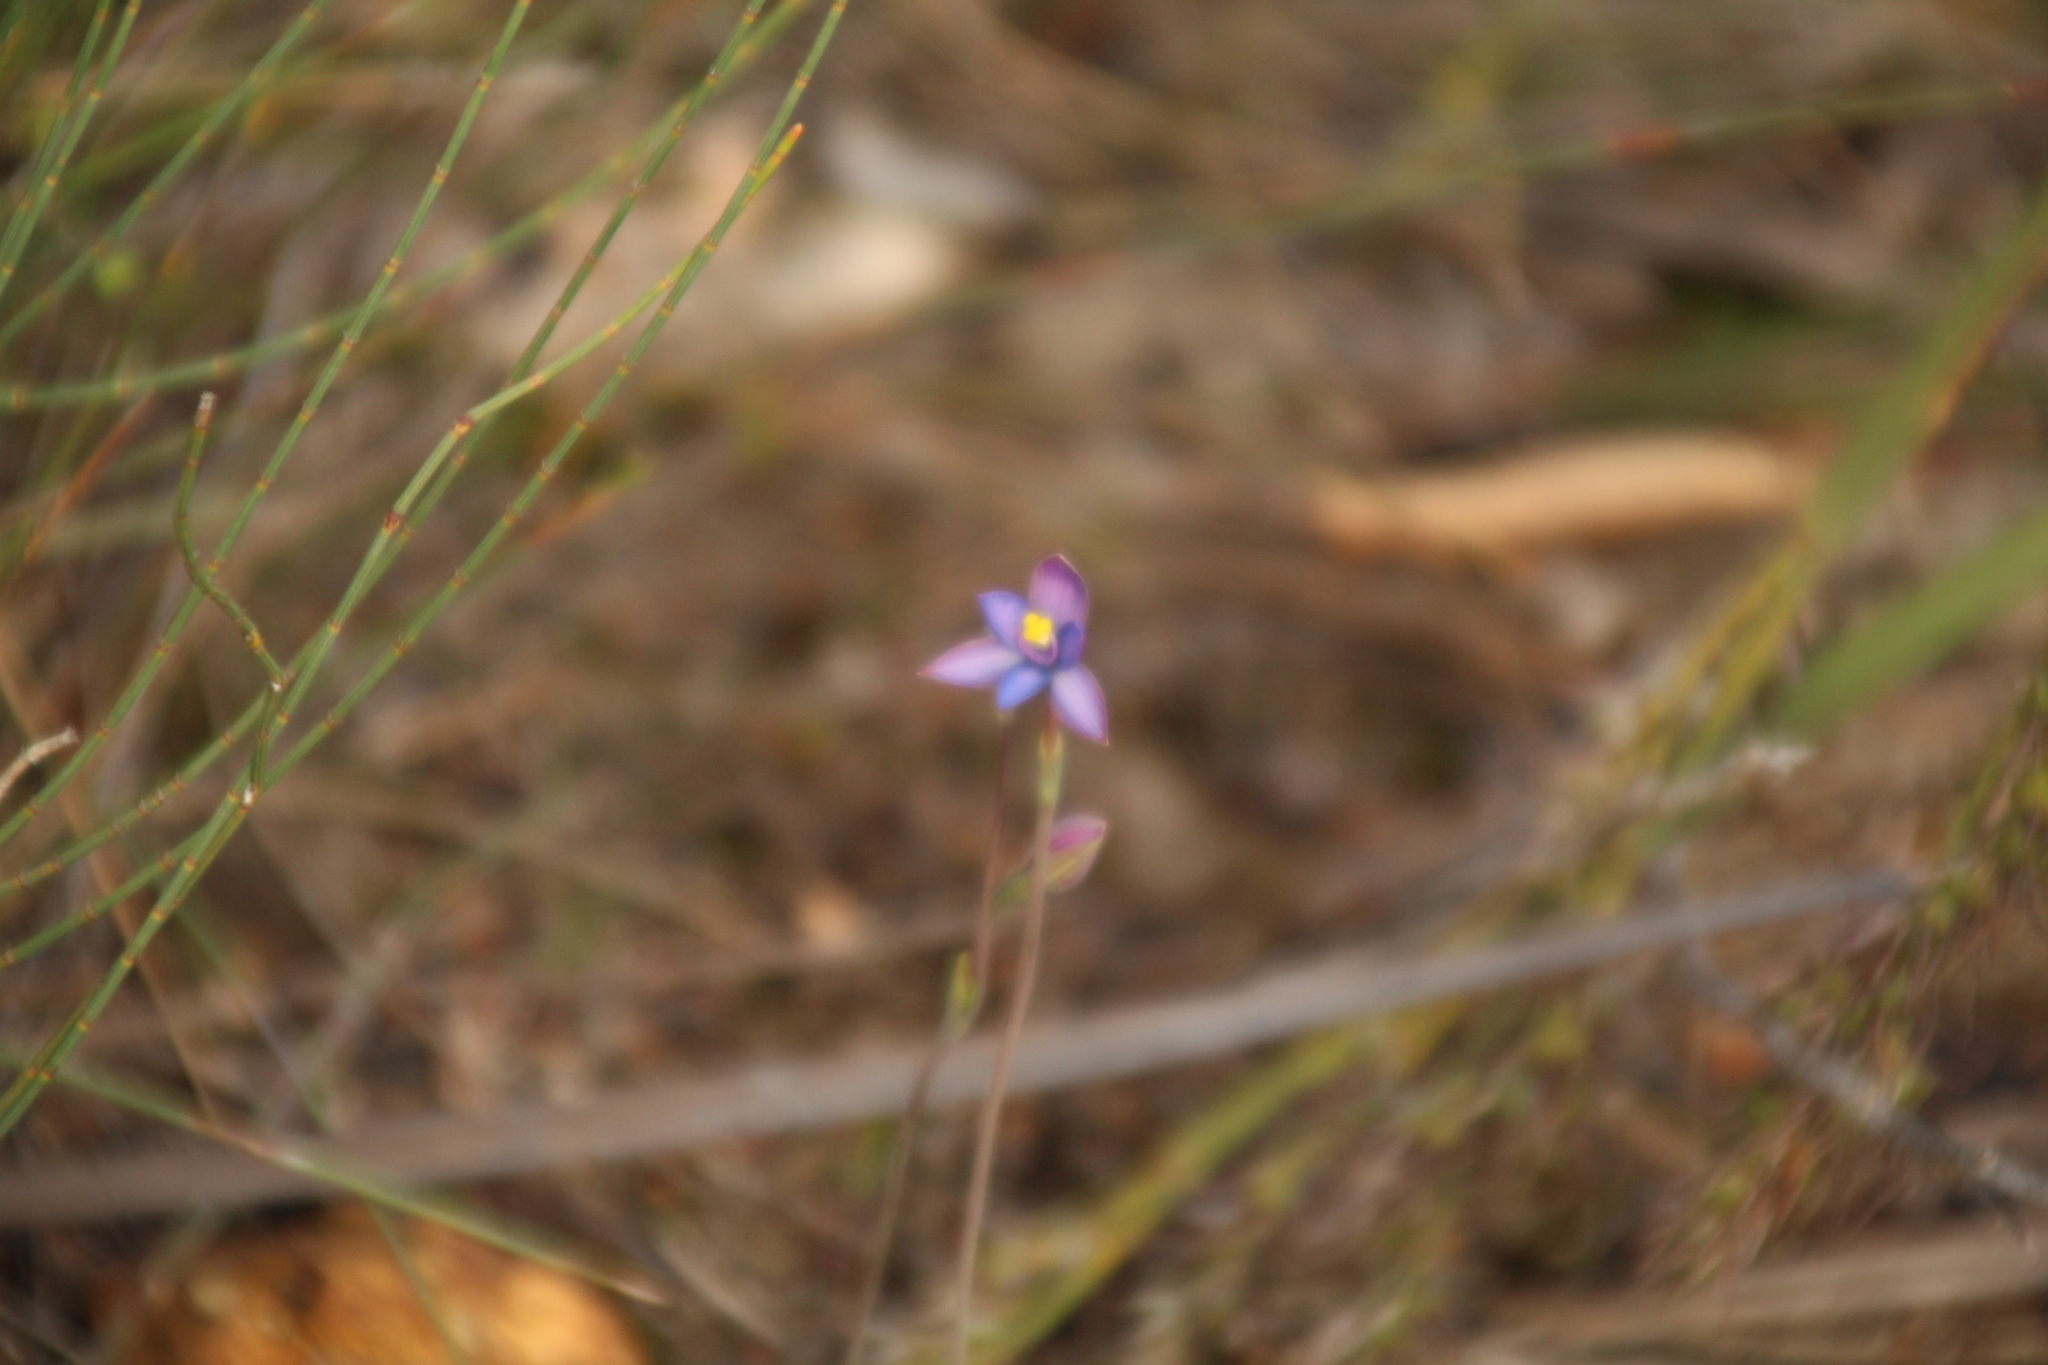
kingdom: Plantae
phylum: Tracheophyta
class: Liliopsida
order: Asparagales
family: Orchidaceae
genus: Thelymitra
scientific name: Thelymitra uliginosa
